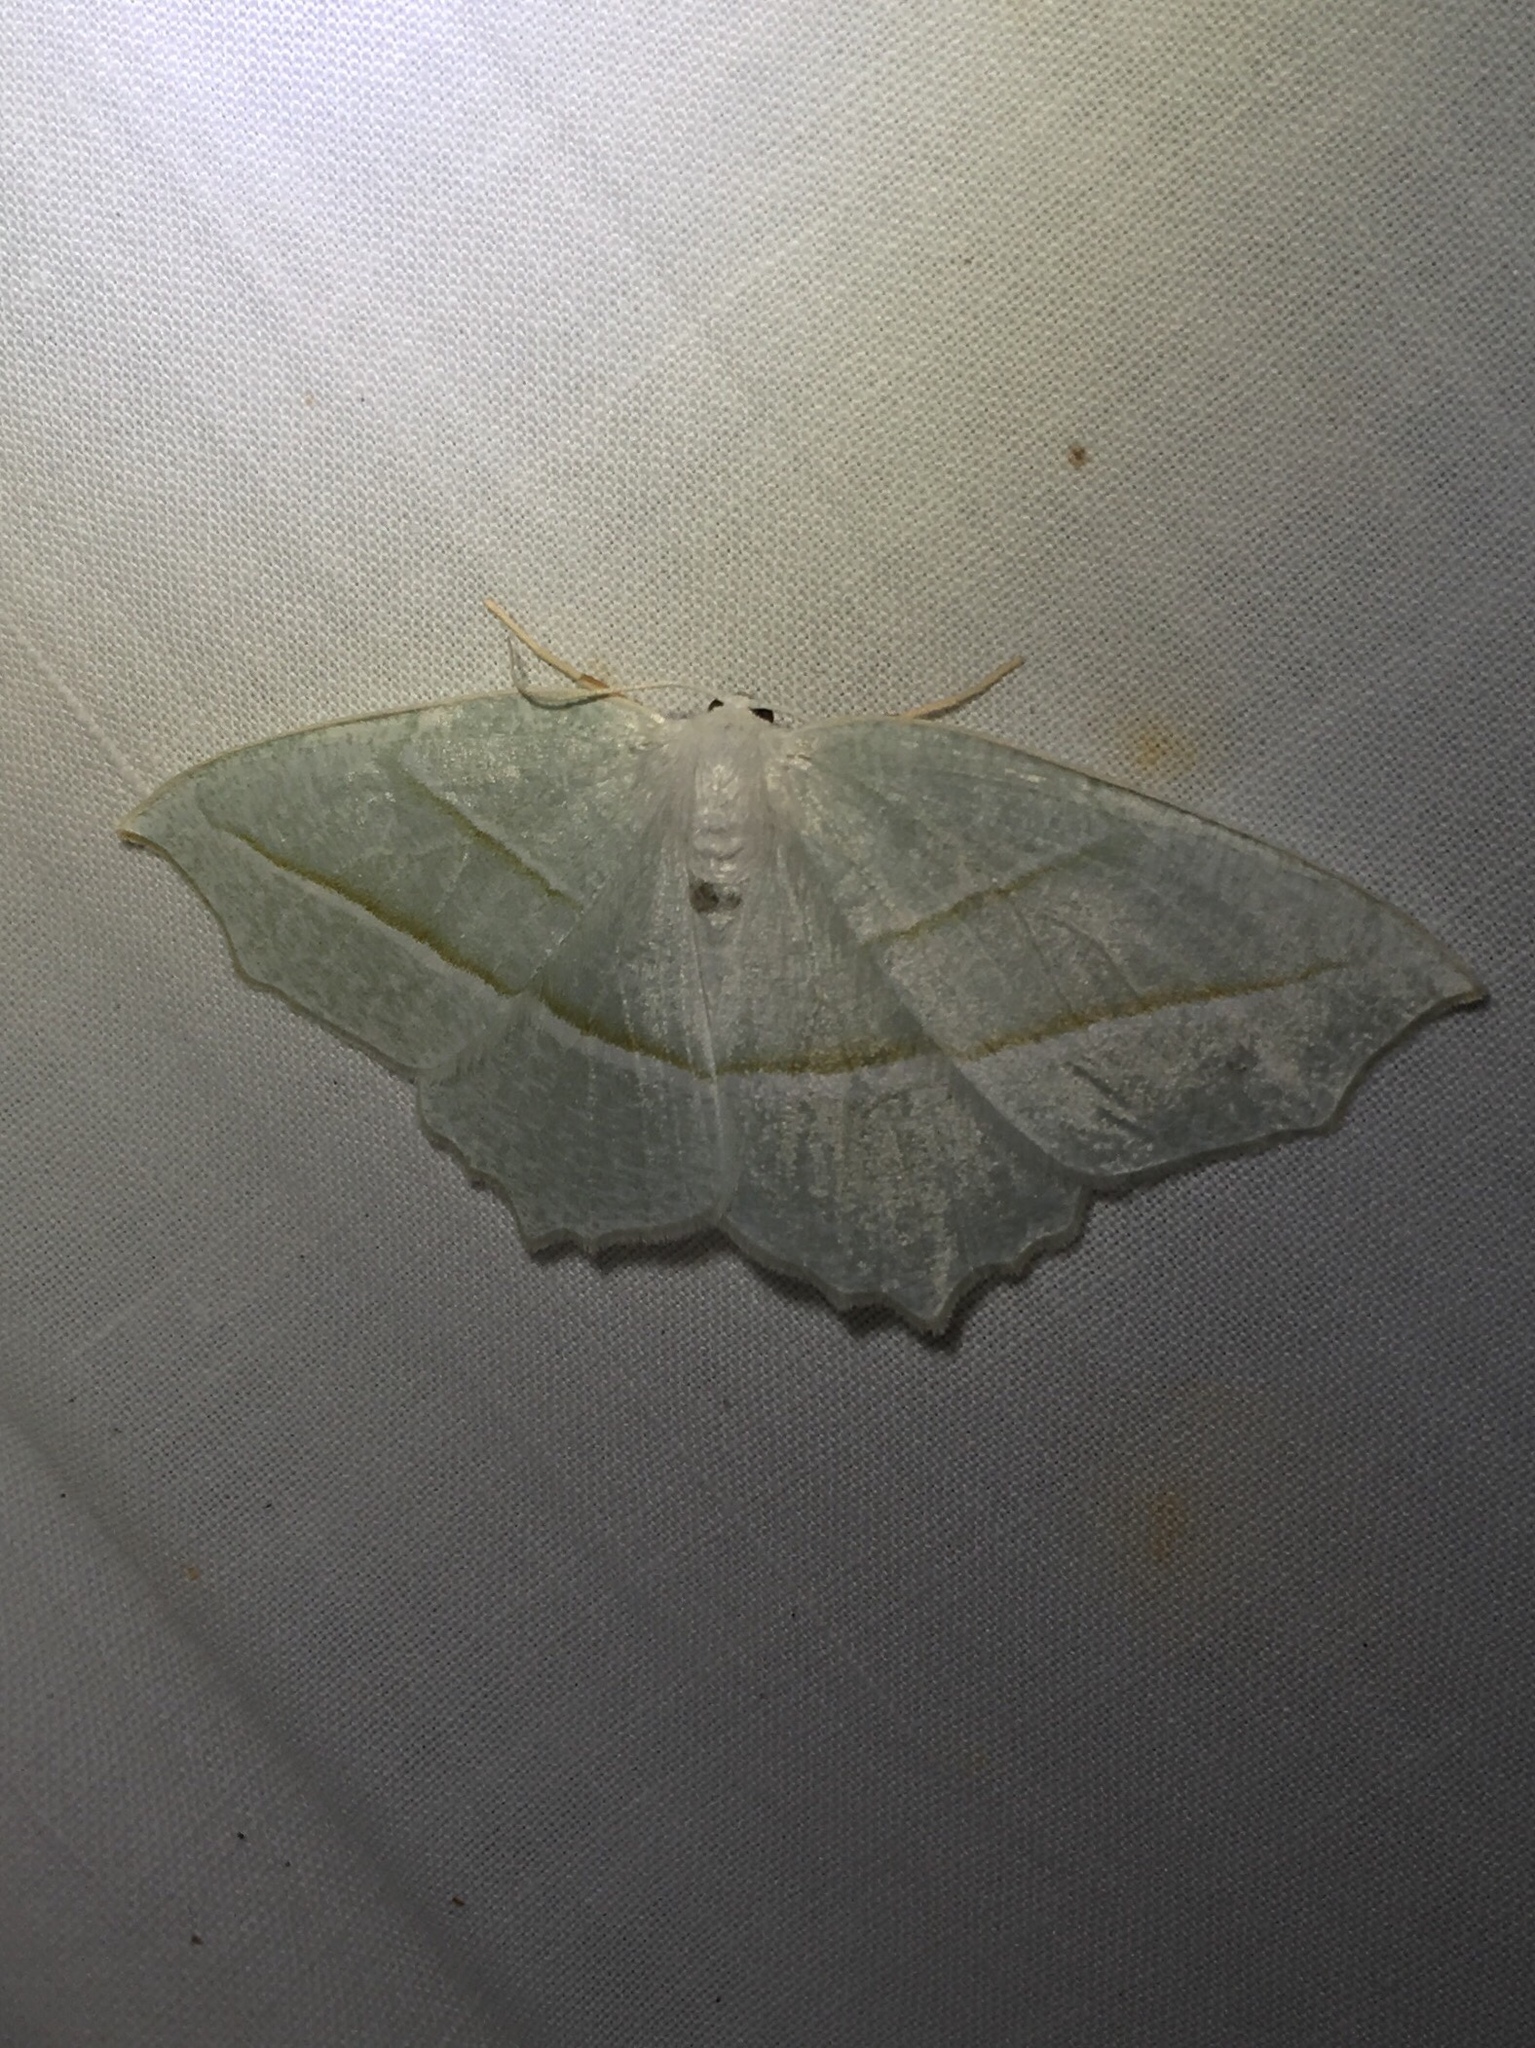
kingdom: Animalia
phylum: Arthropoda
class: Insecta
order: Lepidoptera
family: Geometridae
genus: Campaea
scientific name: Campaea perlata
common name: Fringed looper
